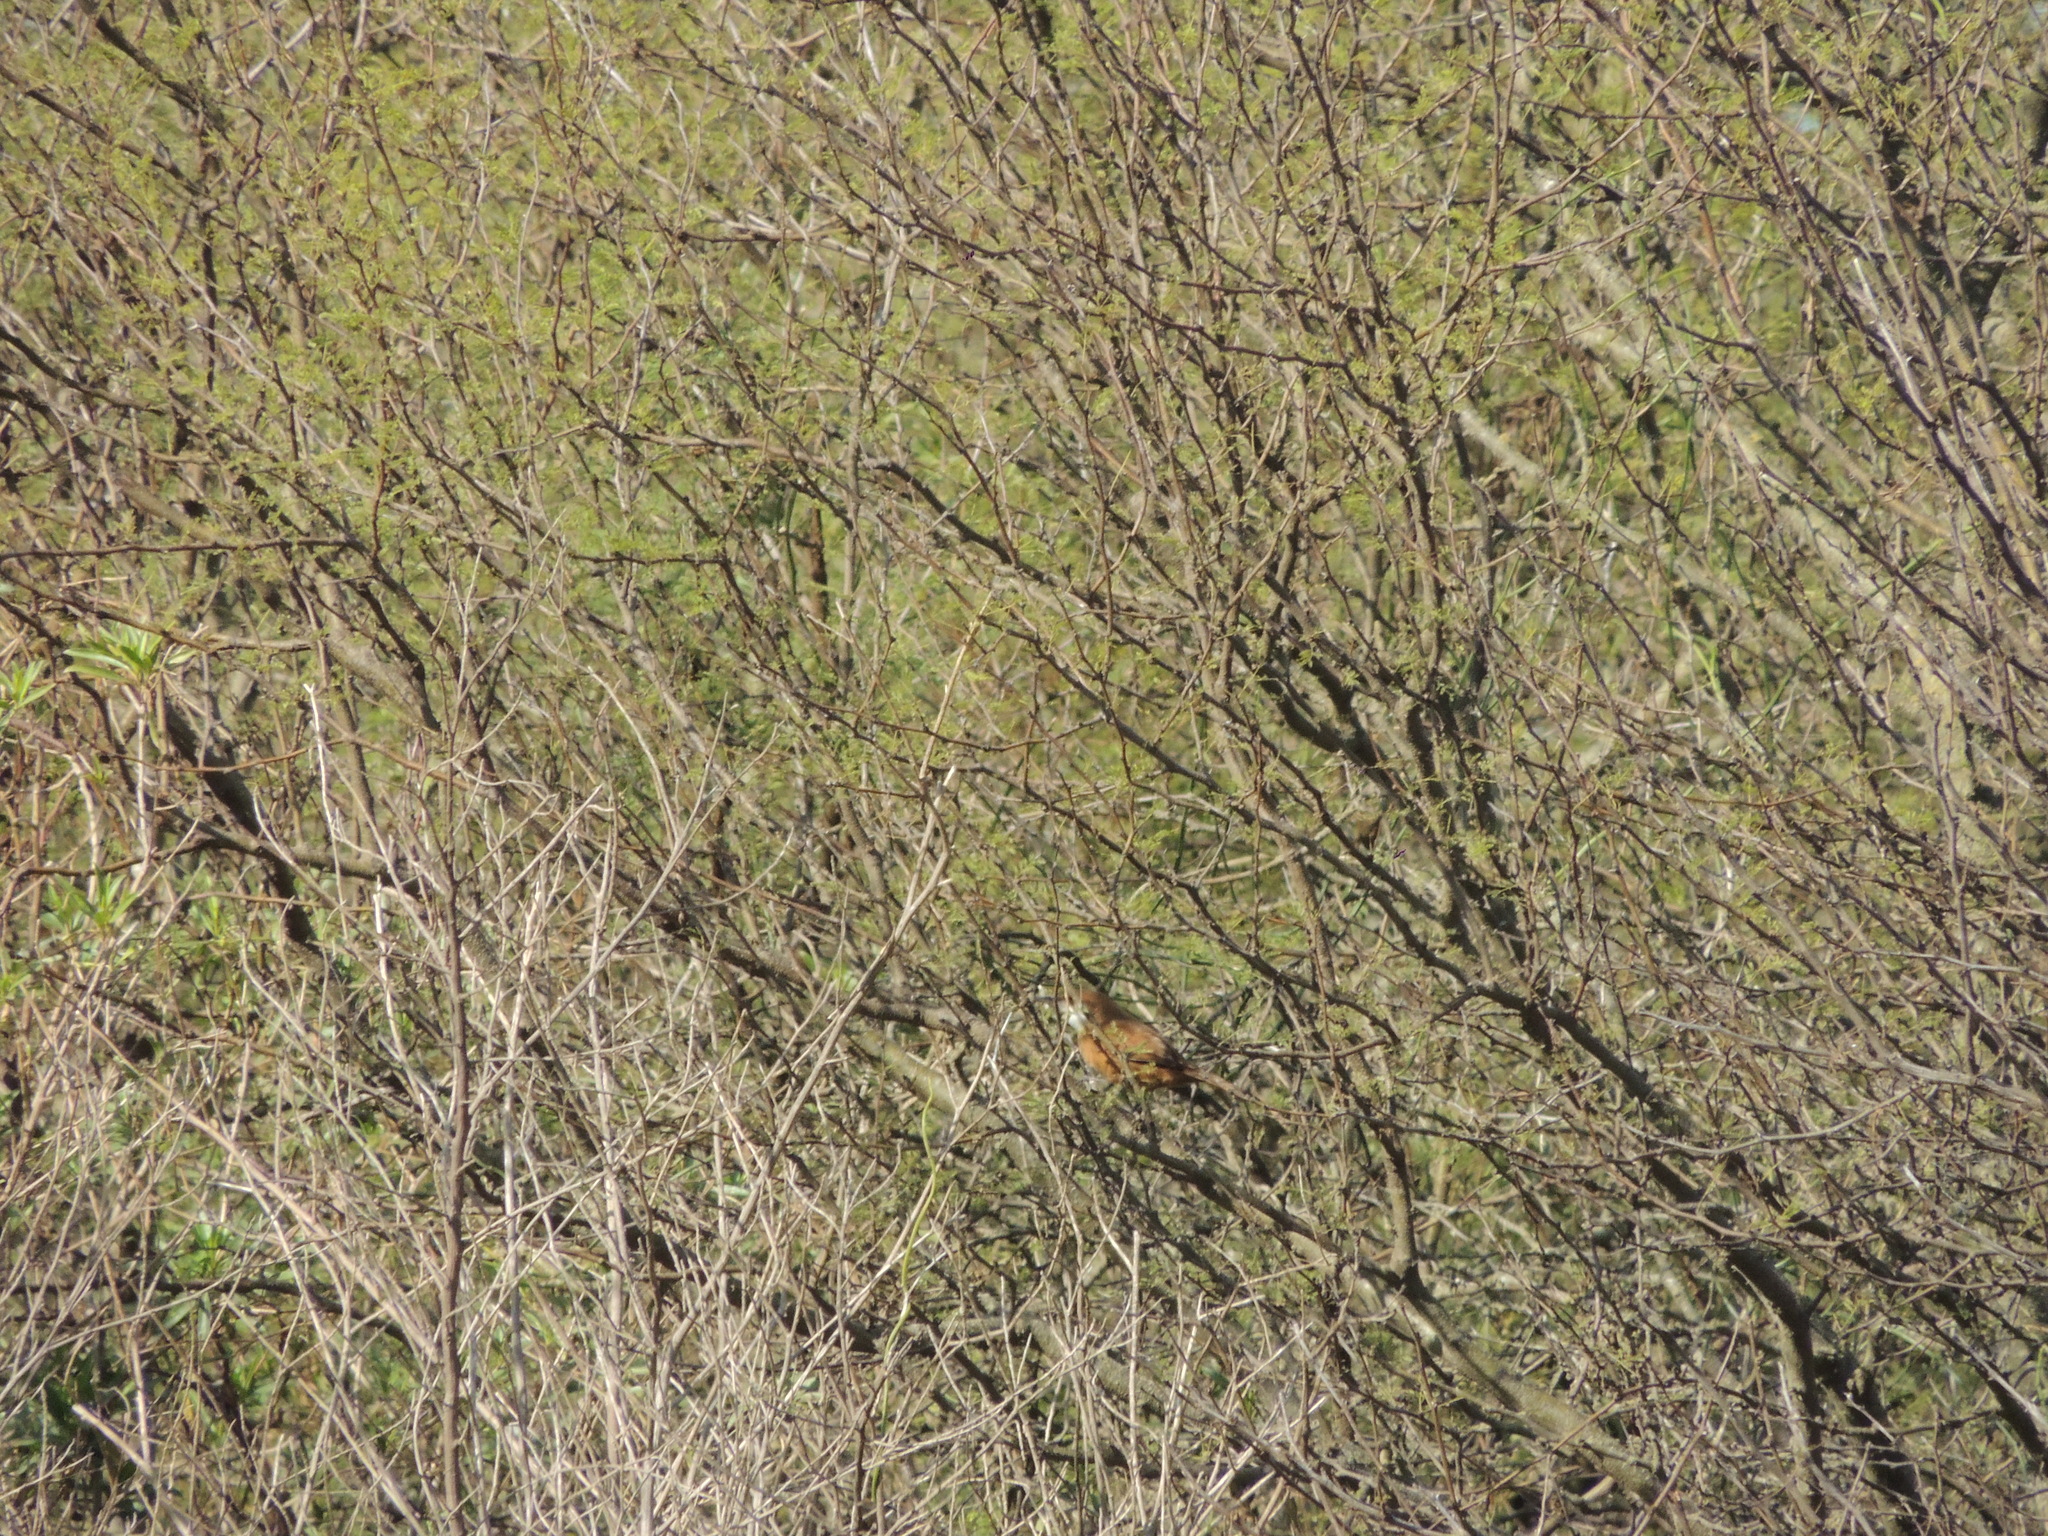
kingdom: Animalia
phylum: Chordata
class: Aves
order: Passeriformes
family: Furnariidae
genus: Upucerthia
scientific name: Upucerthia certhioides
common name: Chaco earthcreeper
